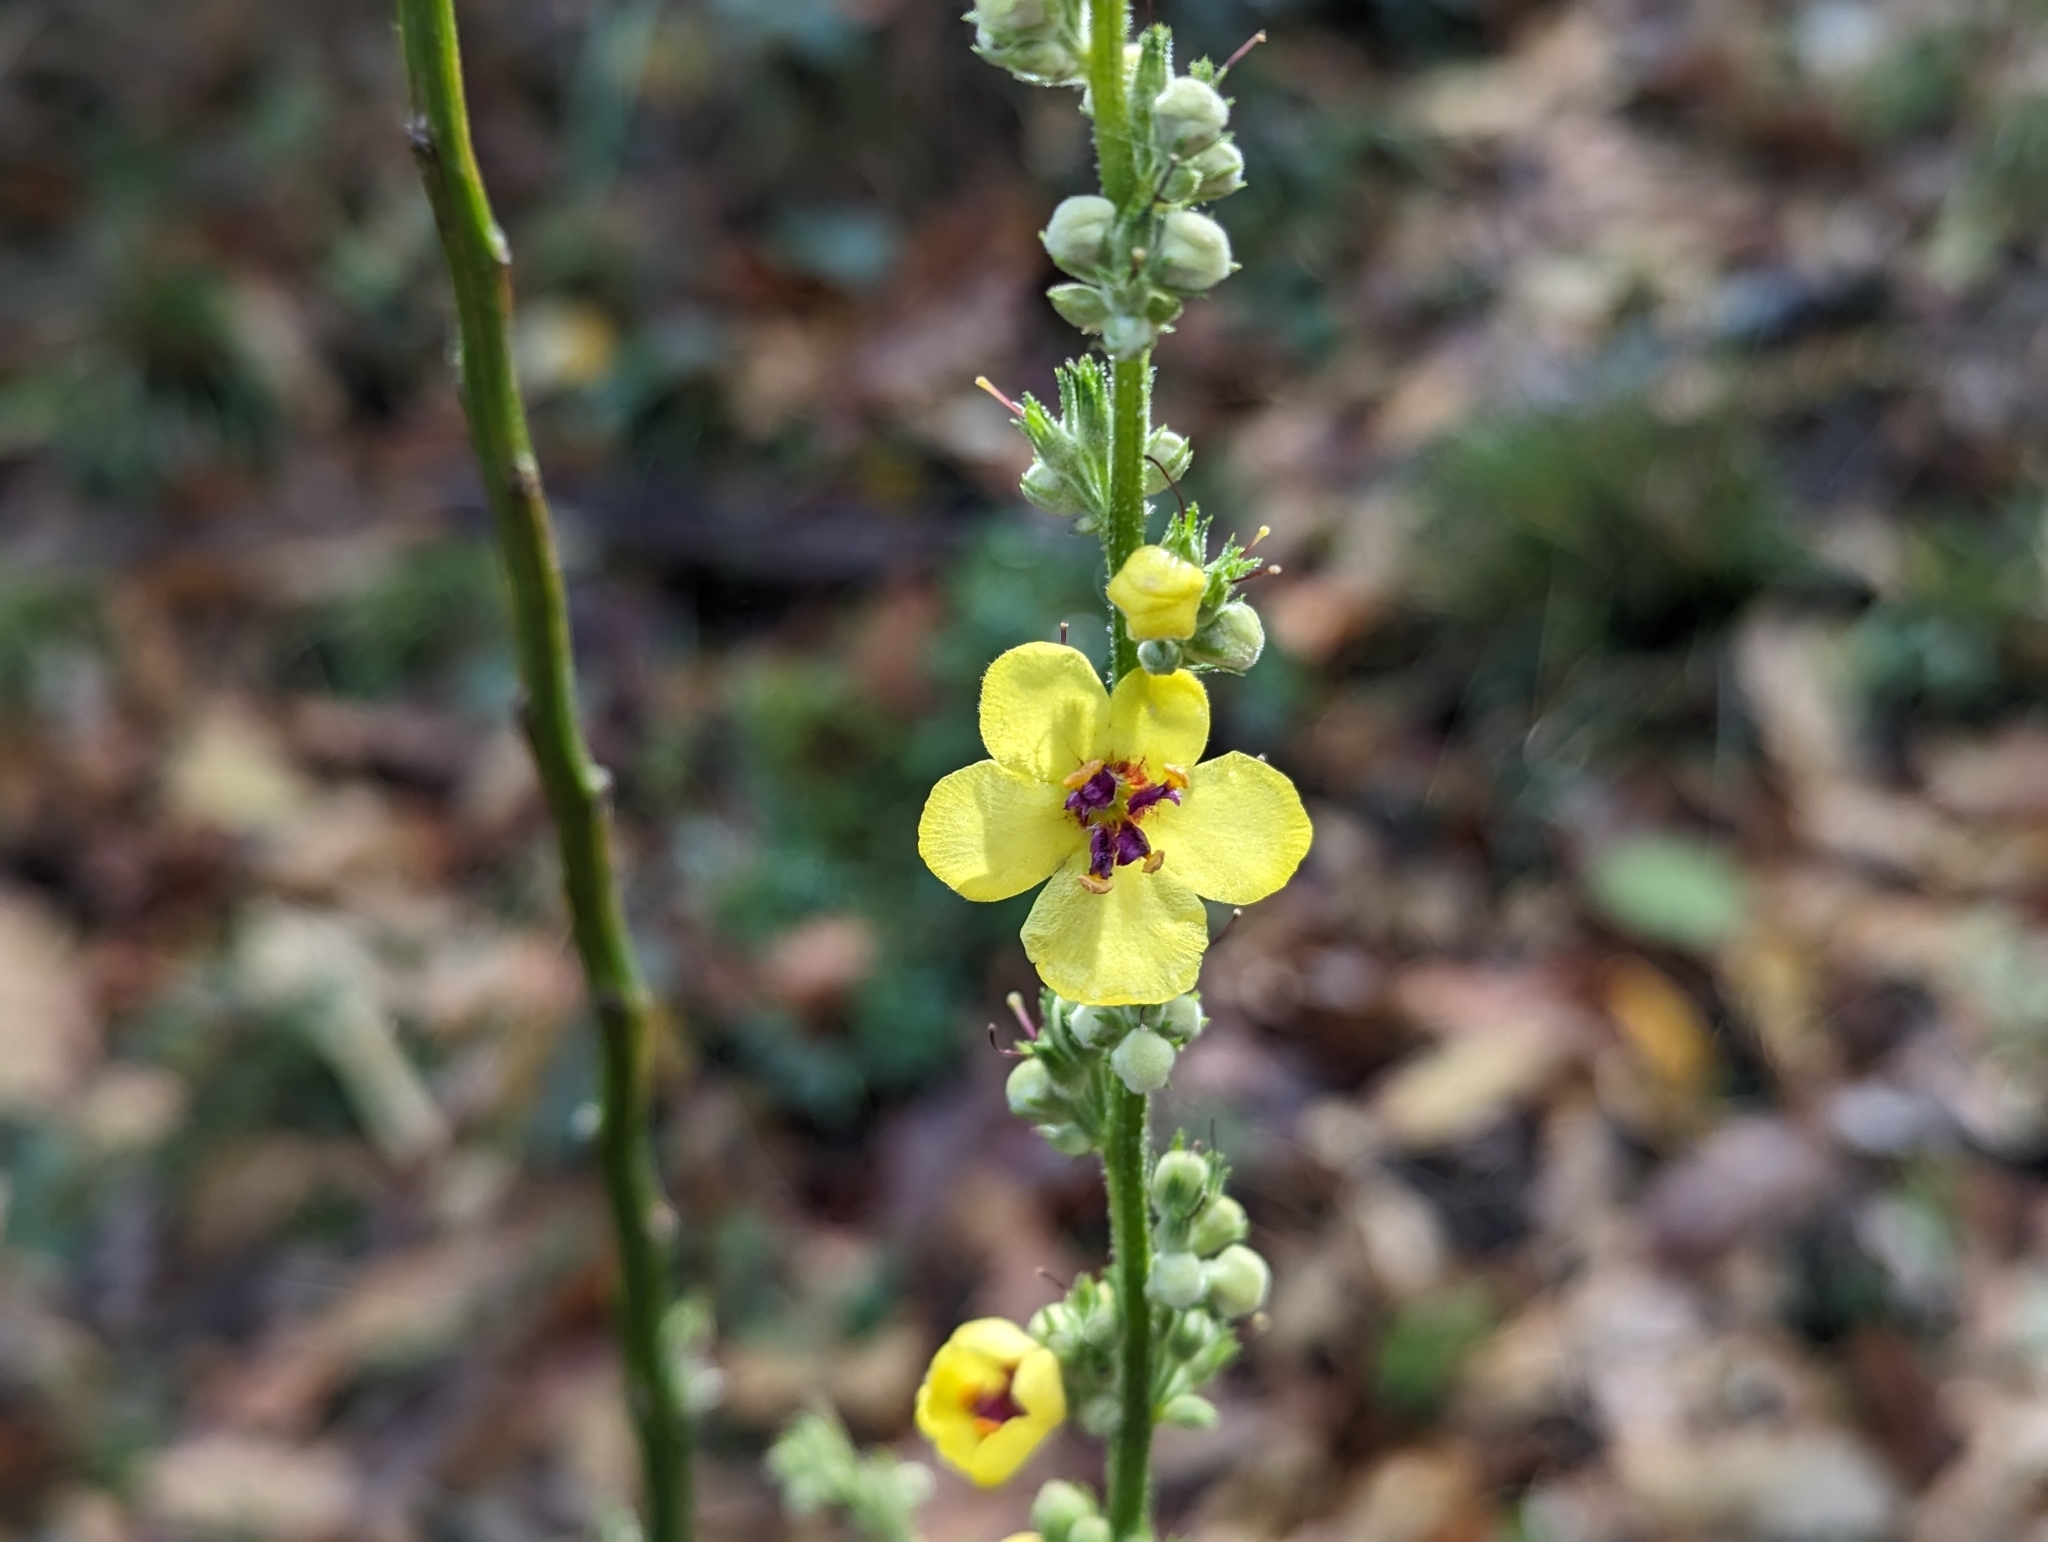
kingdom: Plantae
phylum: Tracheophyta
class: Magnoliopsida
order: Lamiales
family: Scrophulariaceae
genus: Verbascum
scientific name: Verbascum chaixii
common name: Nettle-leaved mullein
